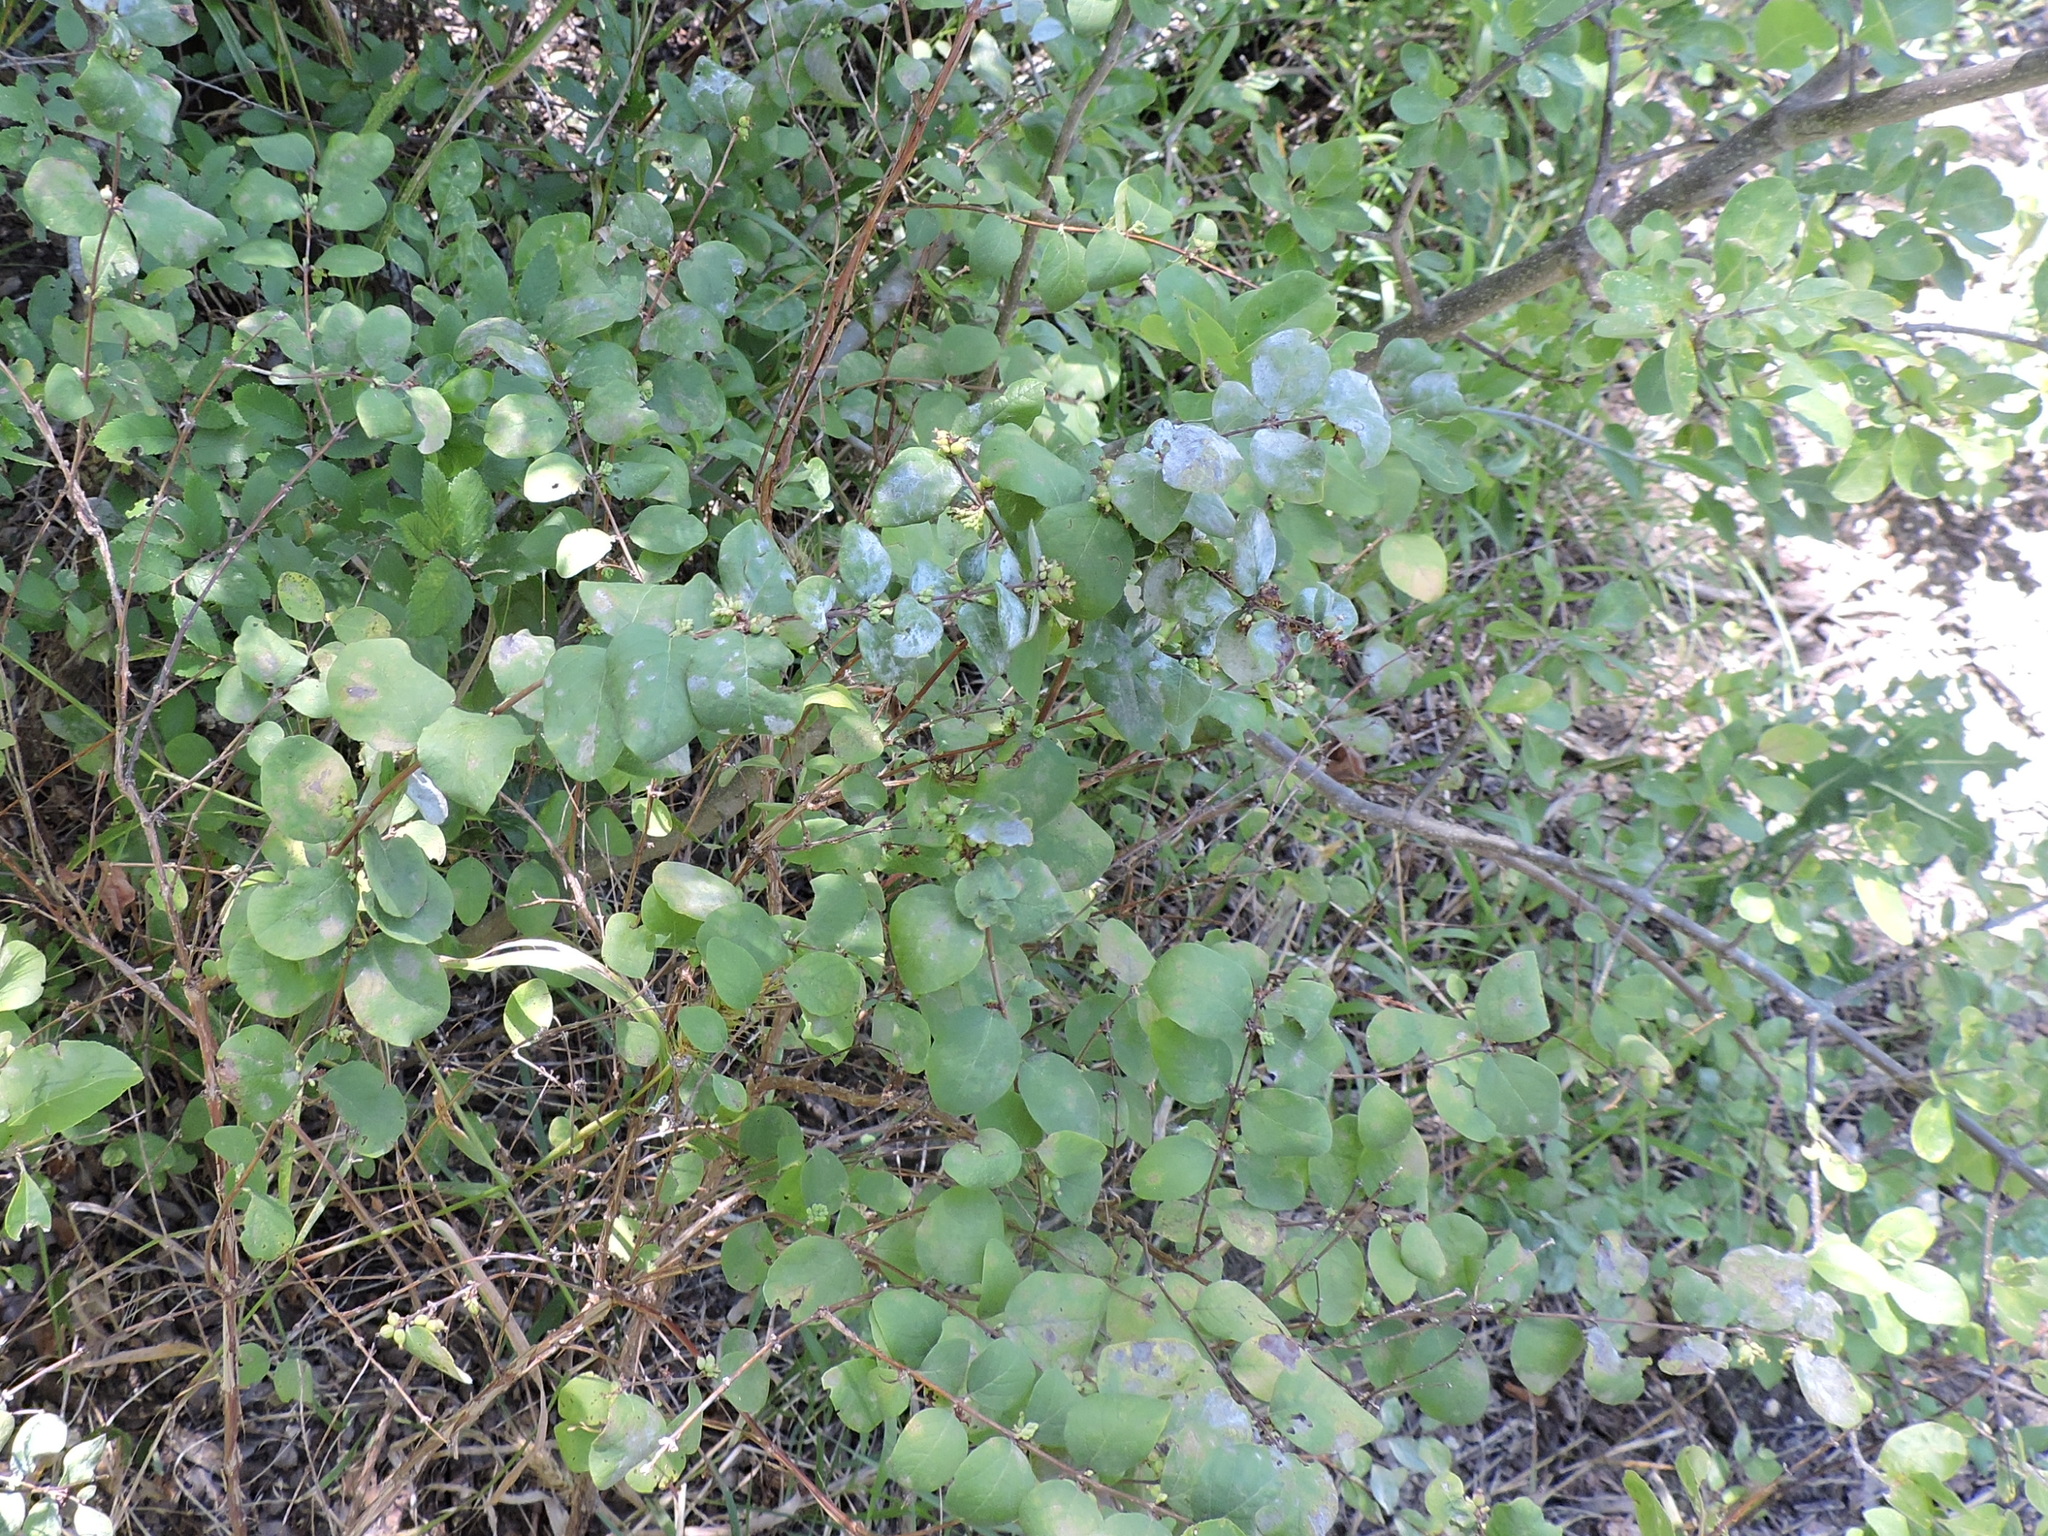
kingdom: Plantae
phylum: Tracheophyta
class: Magnoliopsida
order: Dipsacales
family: Caprifoliaceae
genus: Symphoricarpos
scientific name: Symphoricarpos orbiculatus
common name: Coralberry
